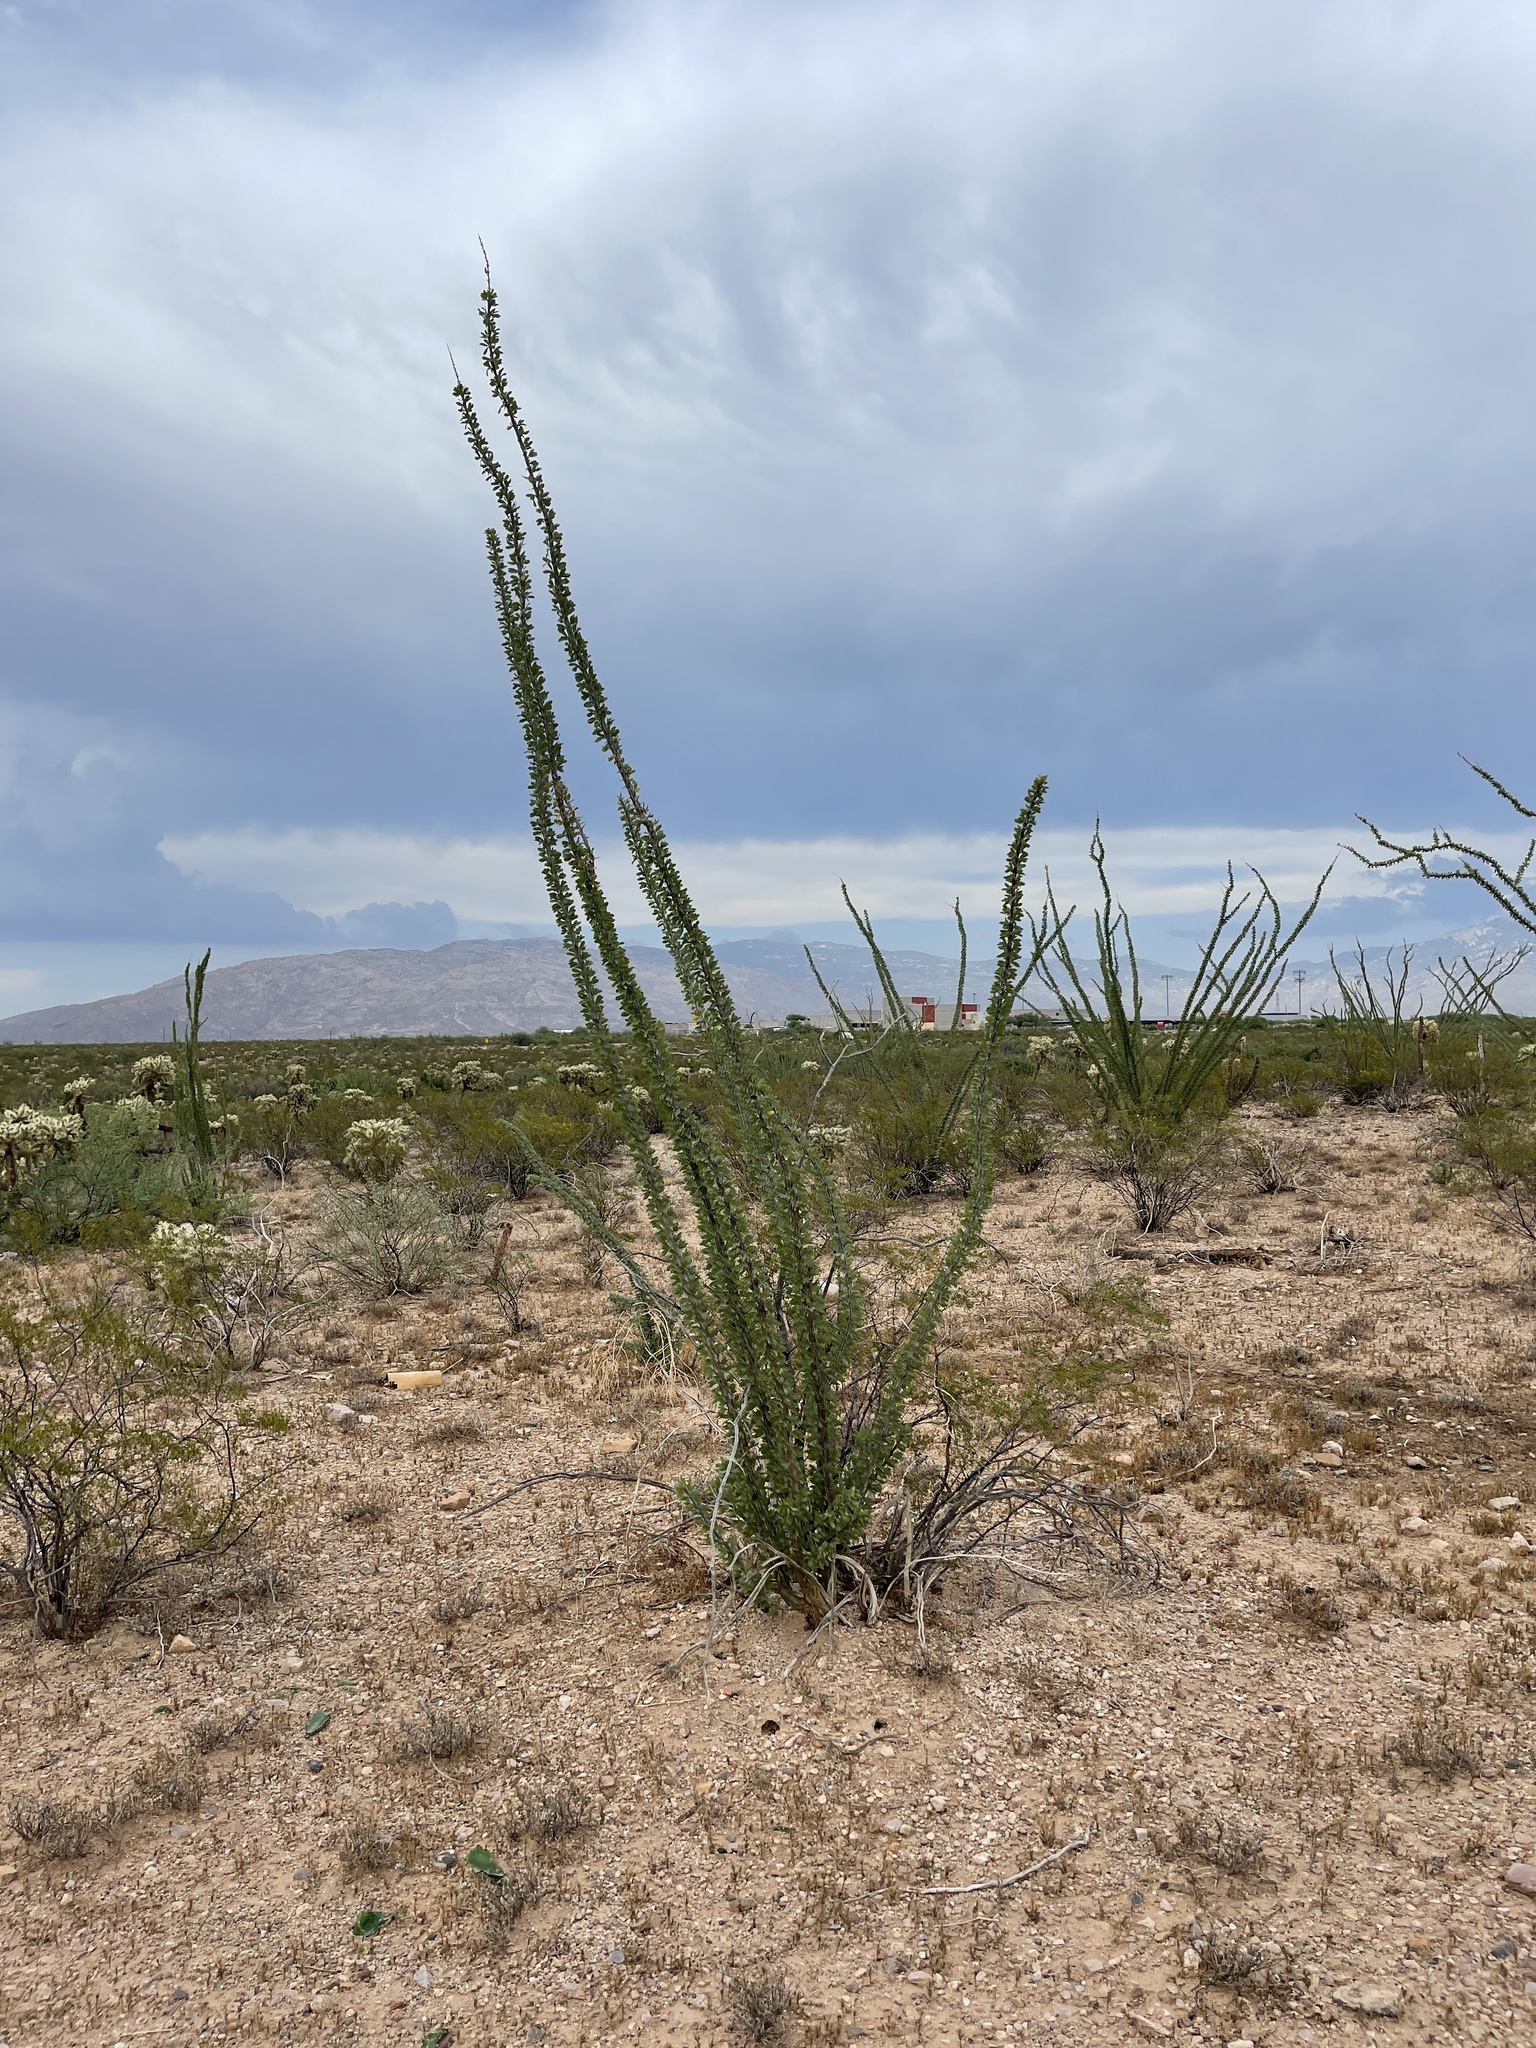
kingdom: Plantae
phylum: Tracheophyta
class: Magnoliopsida
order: Ericales
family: Fouquieriaceae
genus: Fouquieria
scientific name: Fouquieria splendens
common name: Vine-cactus
